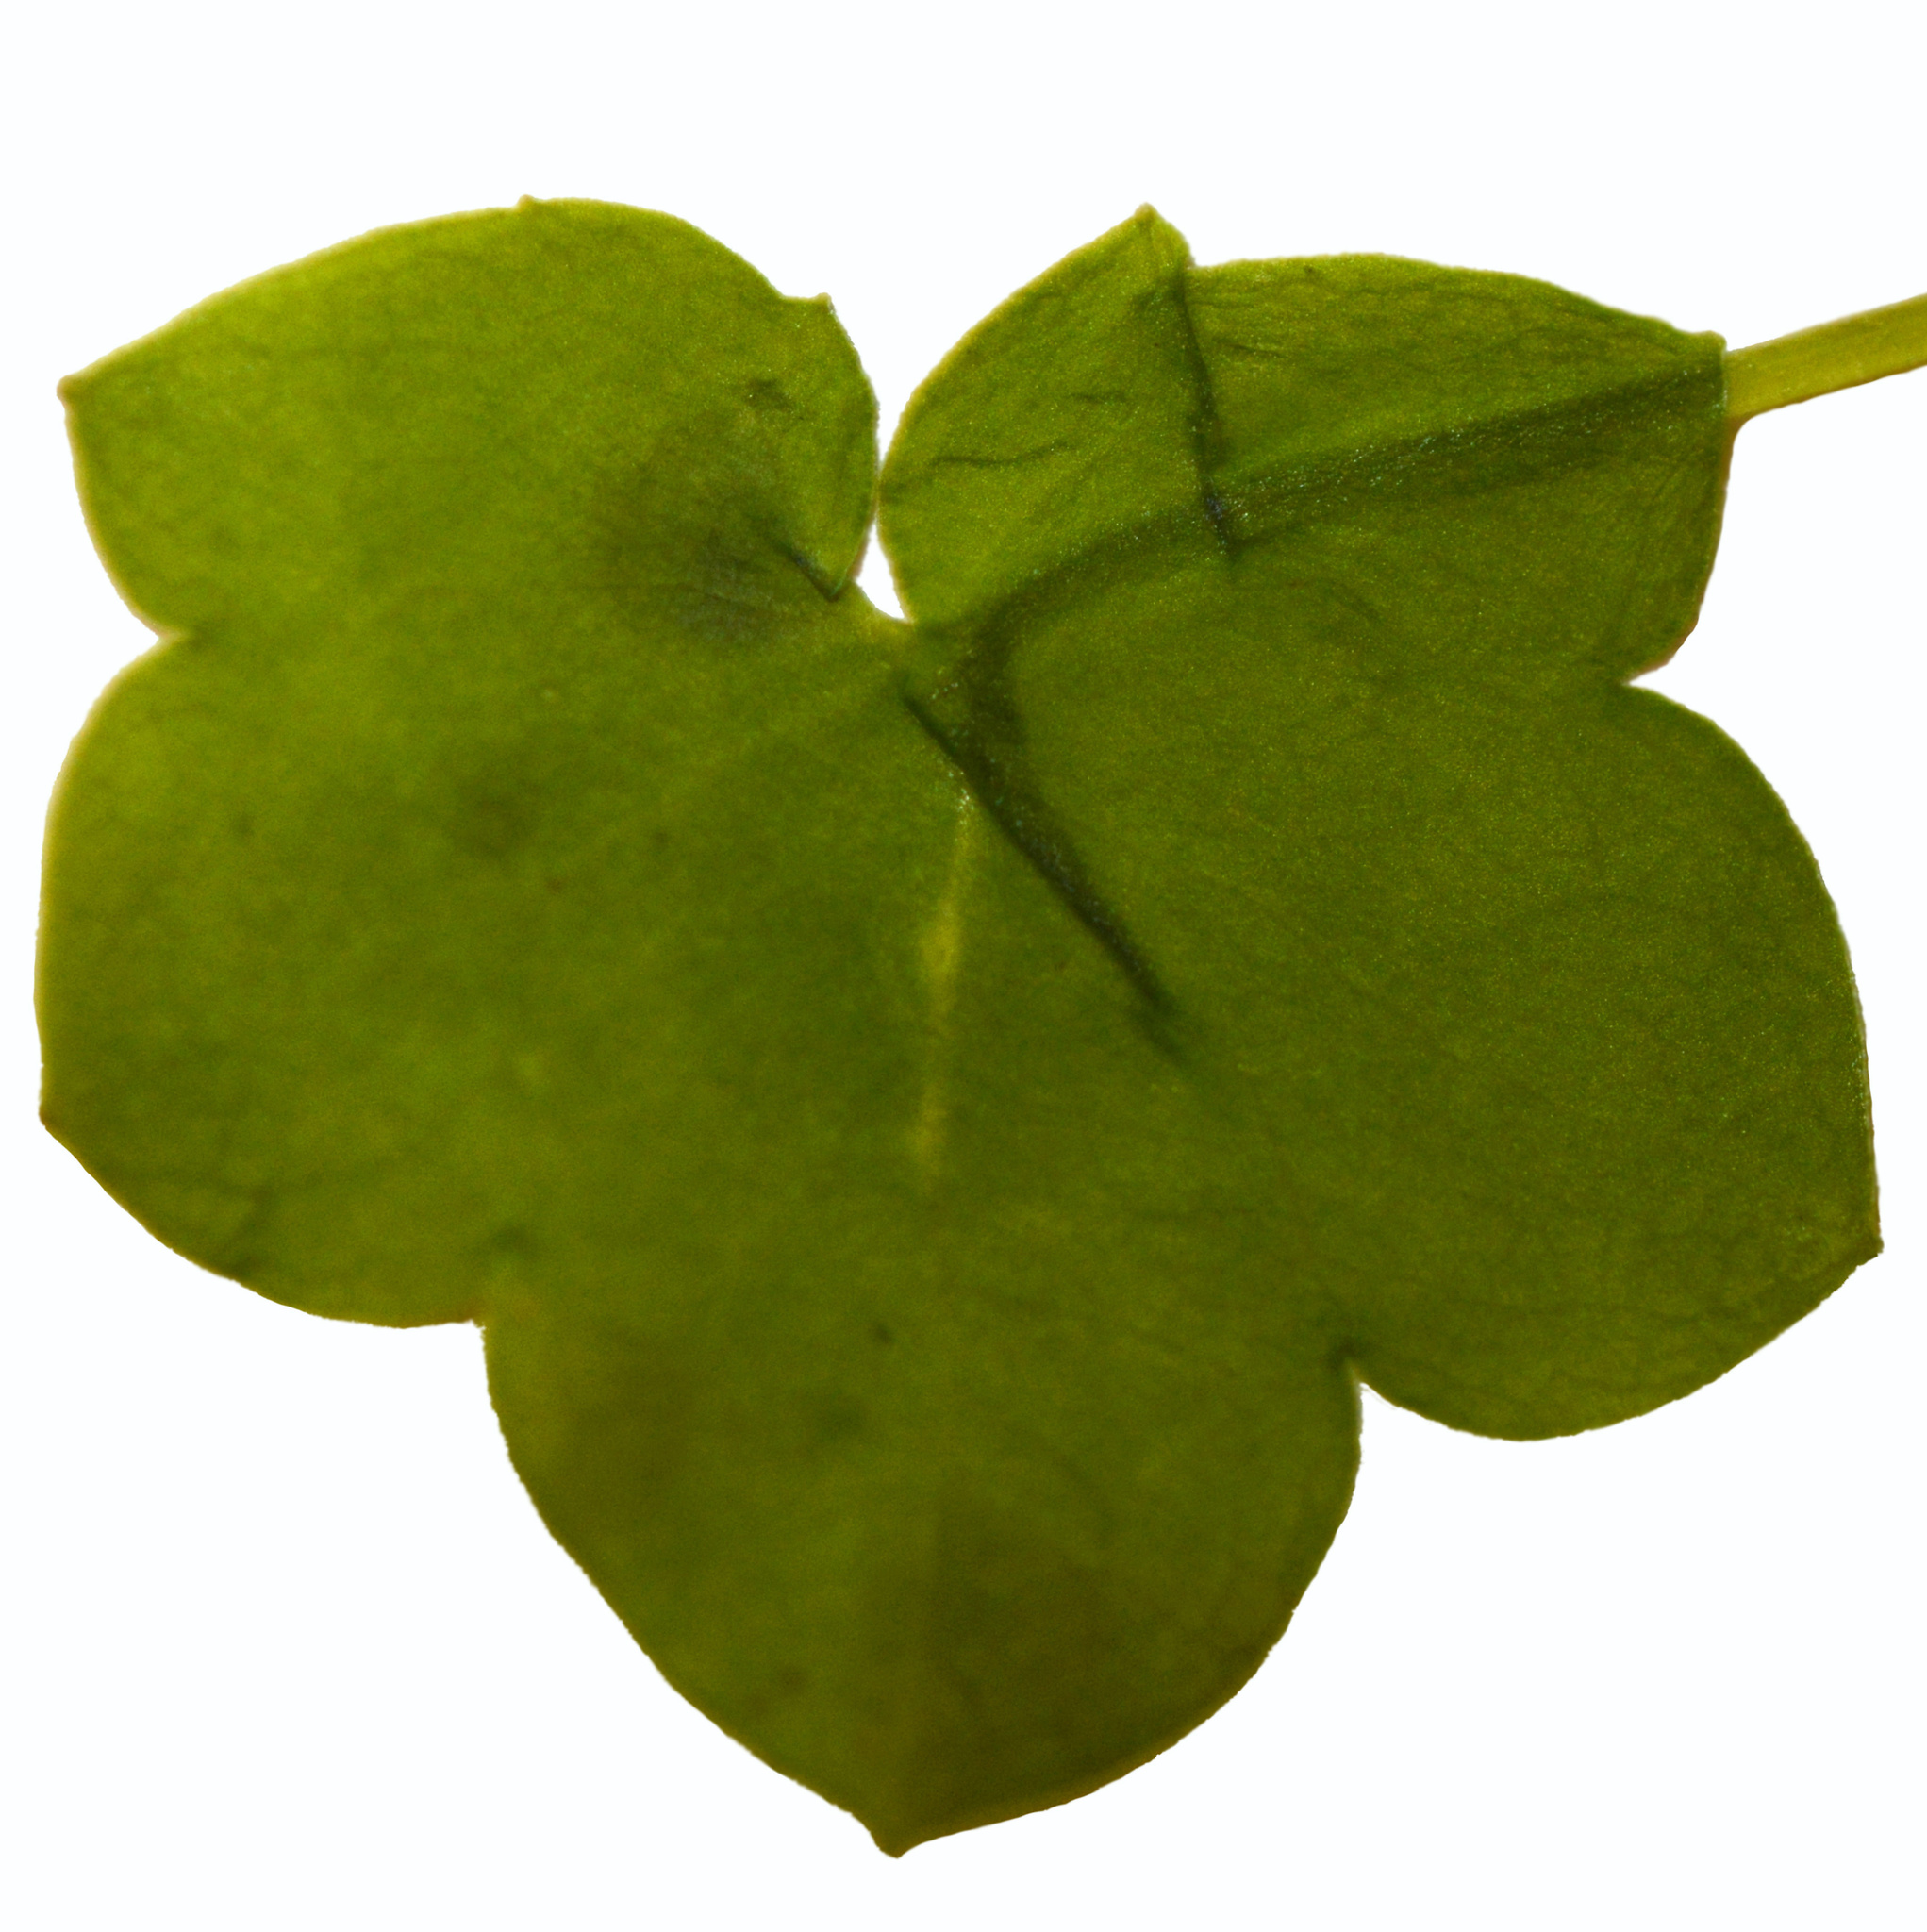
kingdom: Plantae
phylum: Tracheophyta
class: Magnoliopsida
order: Lamiales
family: Plantaginaceae
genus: Cymbalaria
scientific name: Cymbalaria muralis
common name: Ivy-leaved toadflax
